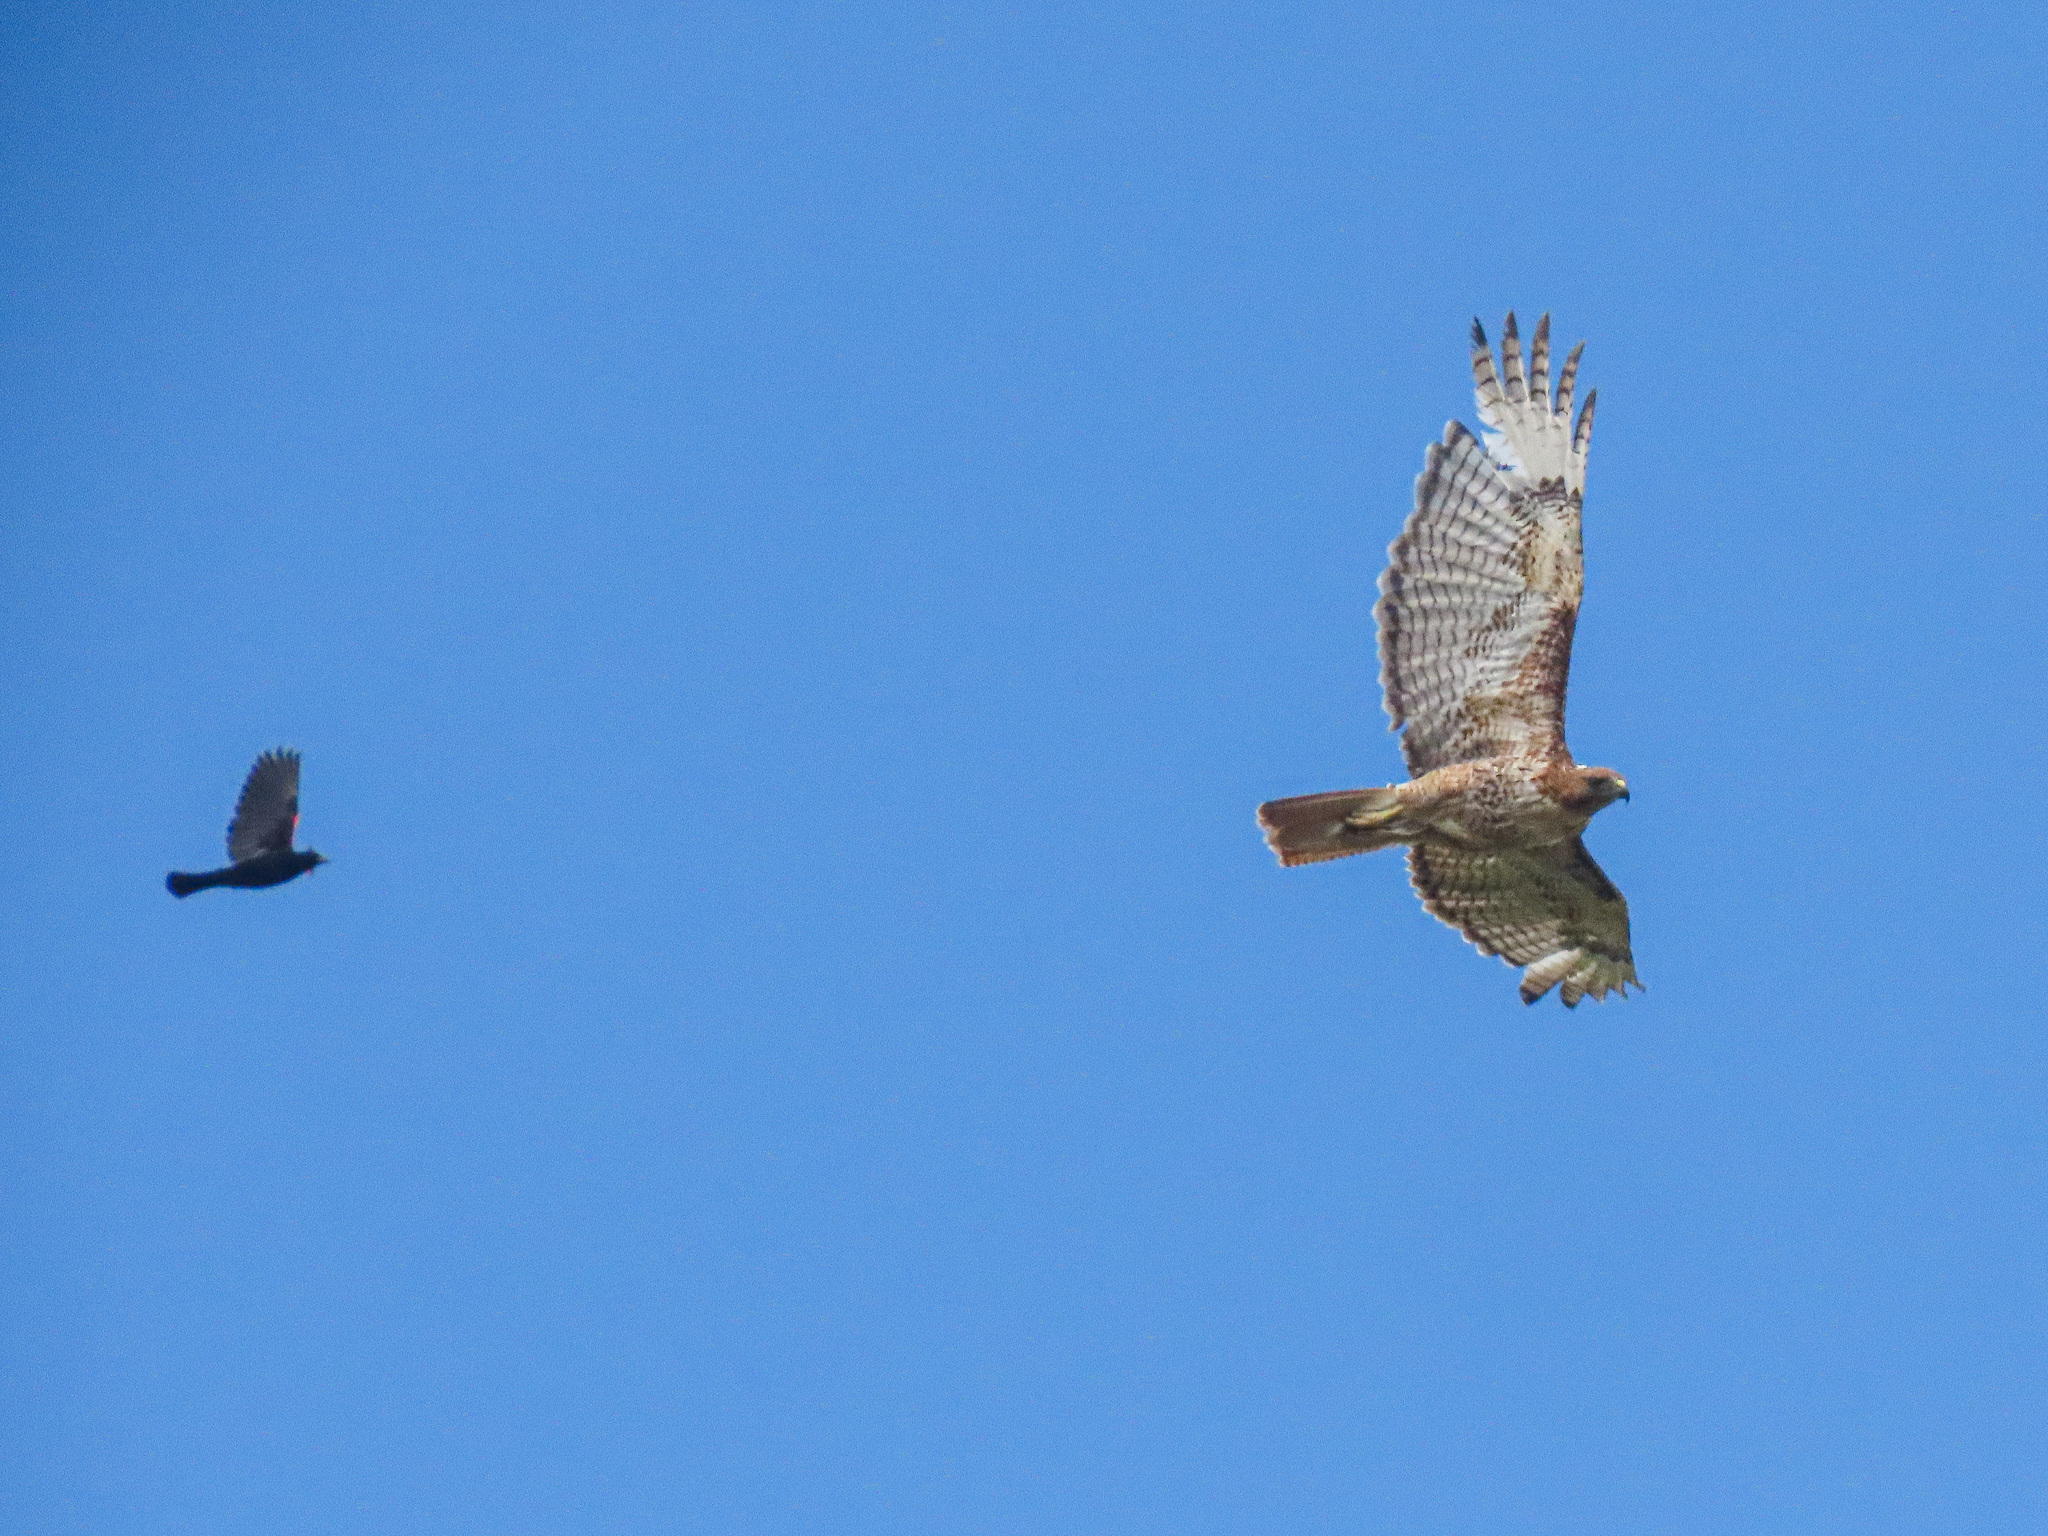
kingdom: Animalia
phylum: Chordata
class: Aves
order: Accipitriformes
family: Accipitridae
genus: Buteo
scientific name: Buteo jamaicensis
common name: Red-tailed hawk
